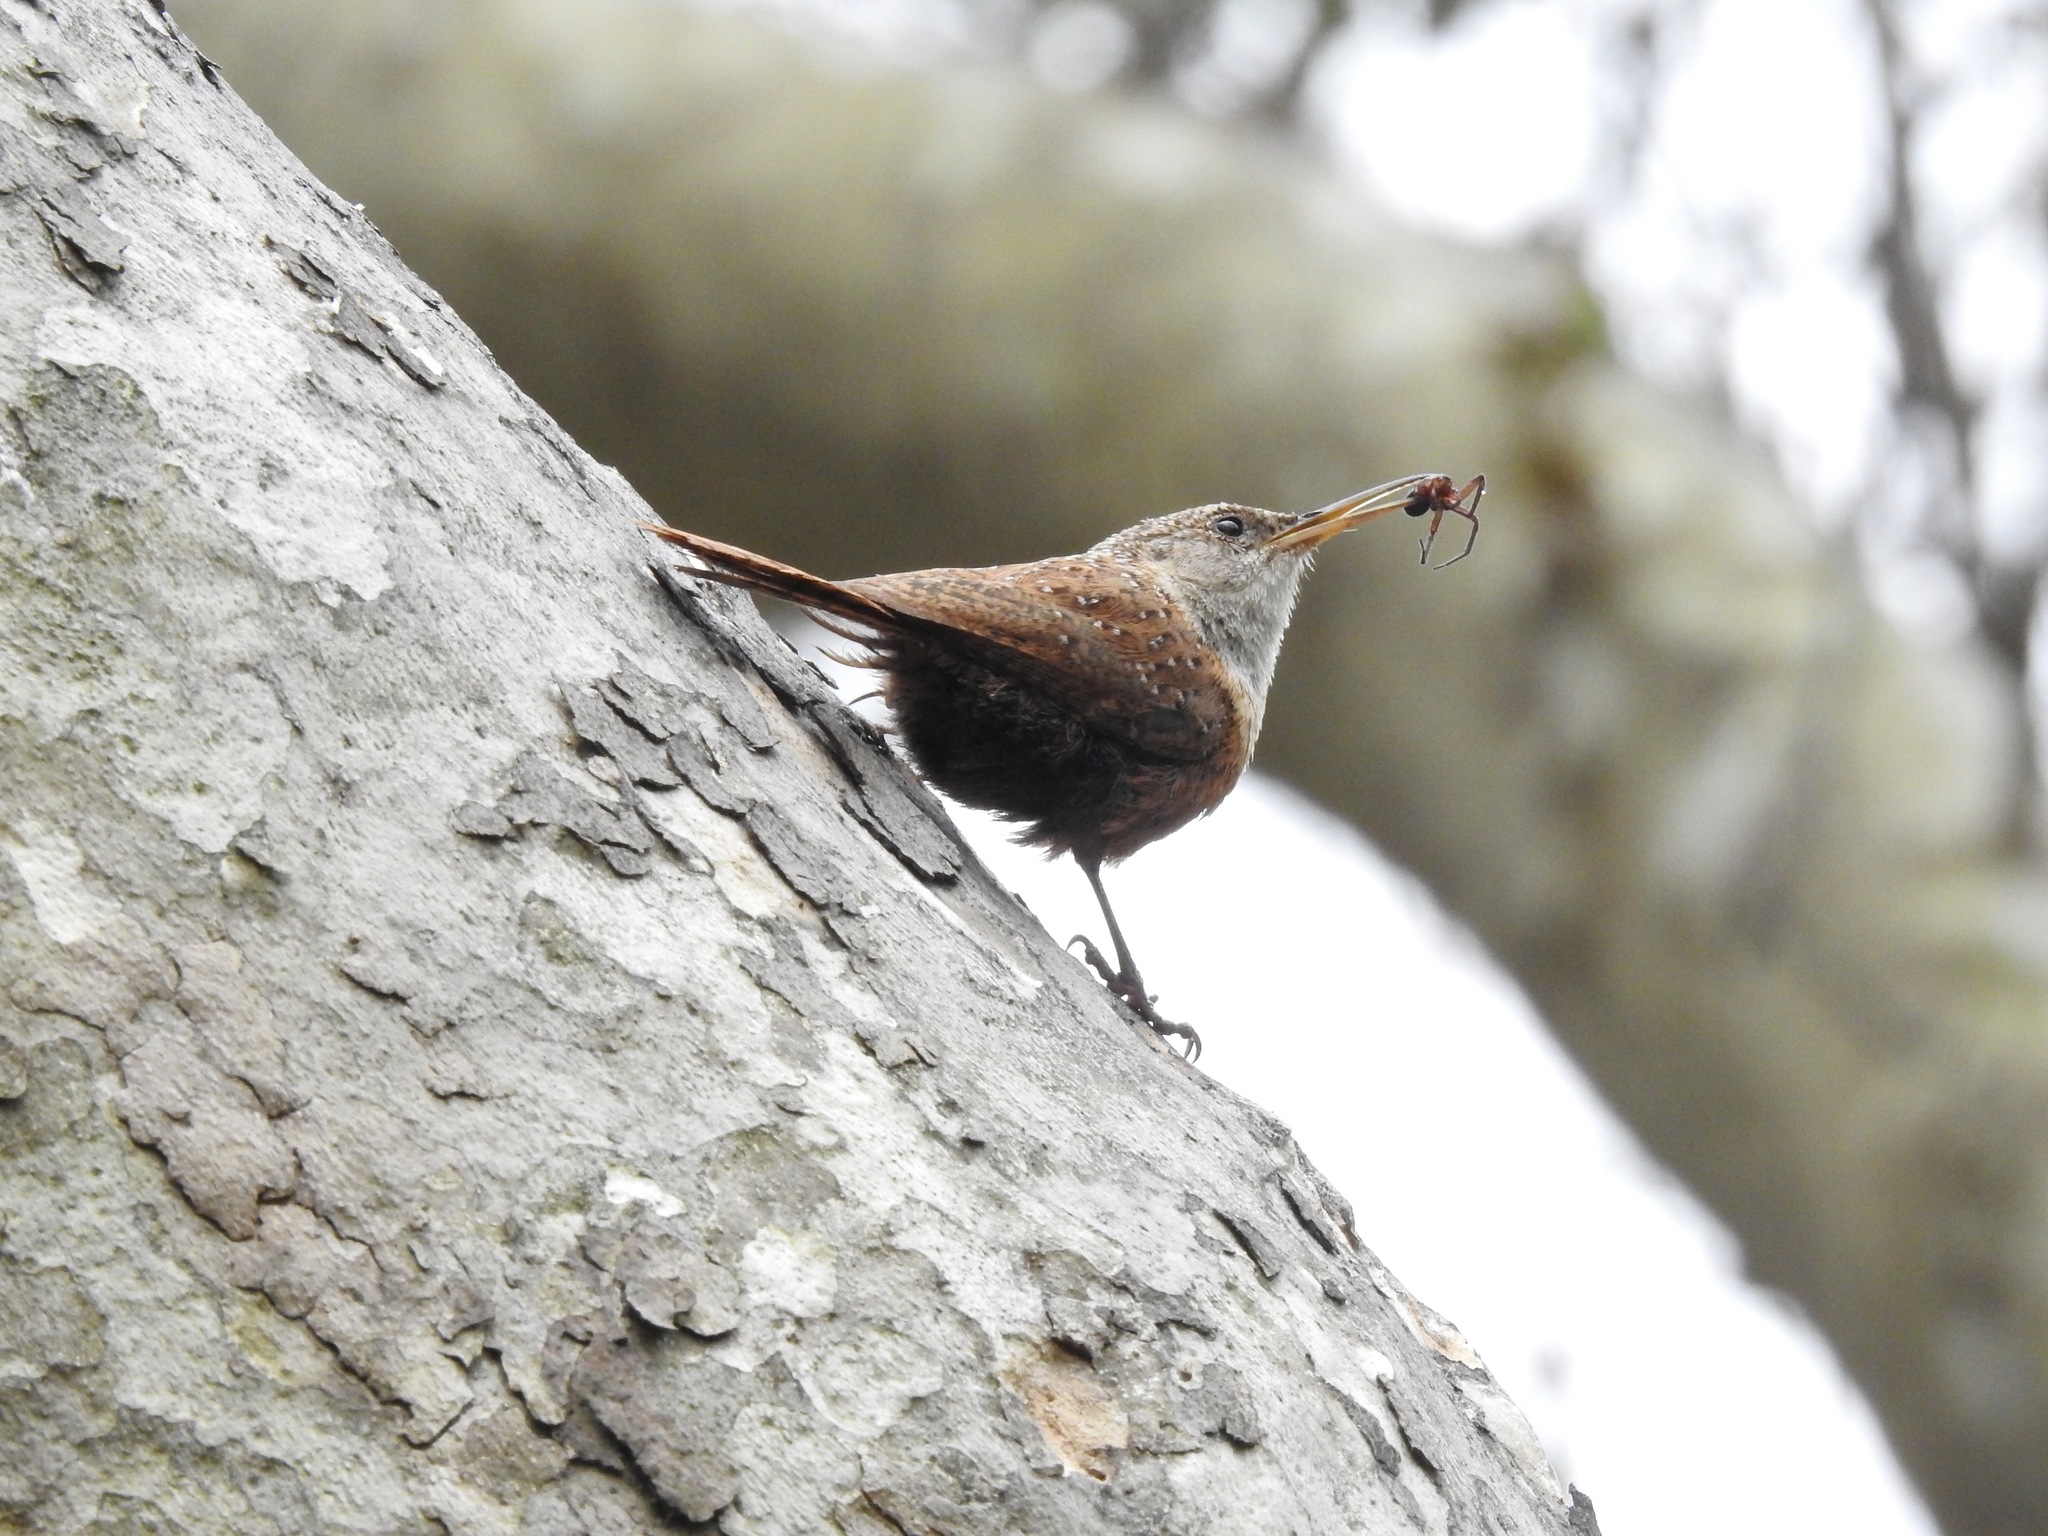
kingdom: Animalia
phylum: Chordata
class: Aves
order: Passeriformes
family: Troglodytidae
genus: Catherpes
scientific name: Catherpes mexicanus
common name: Canyon wren
